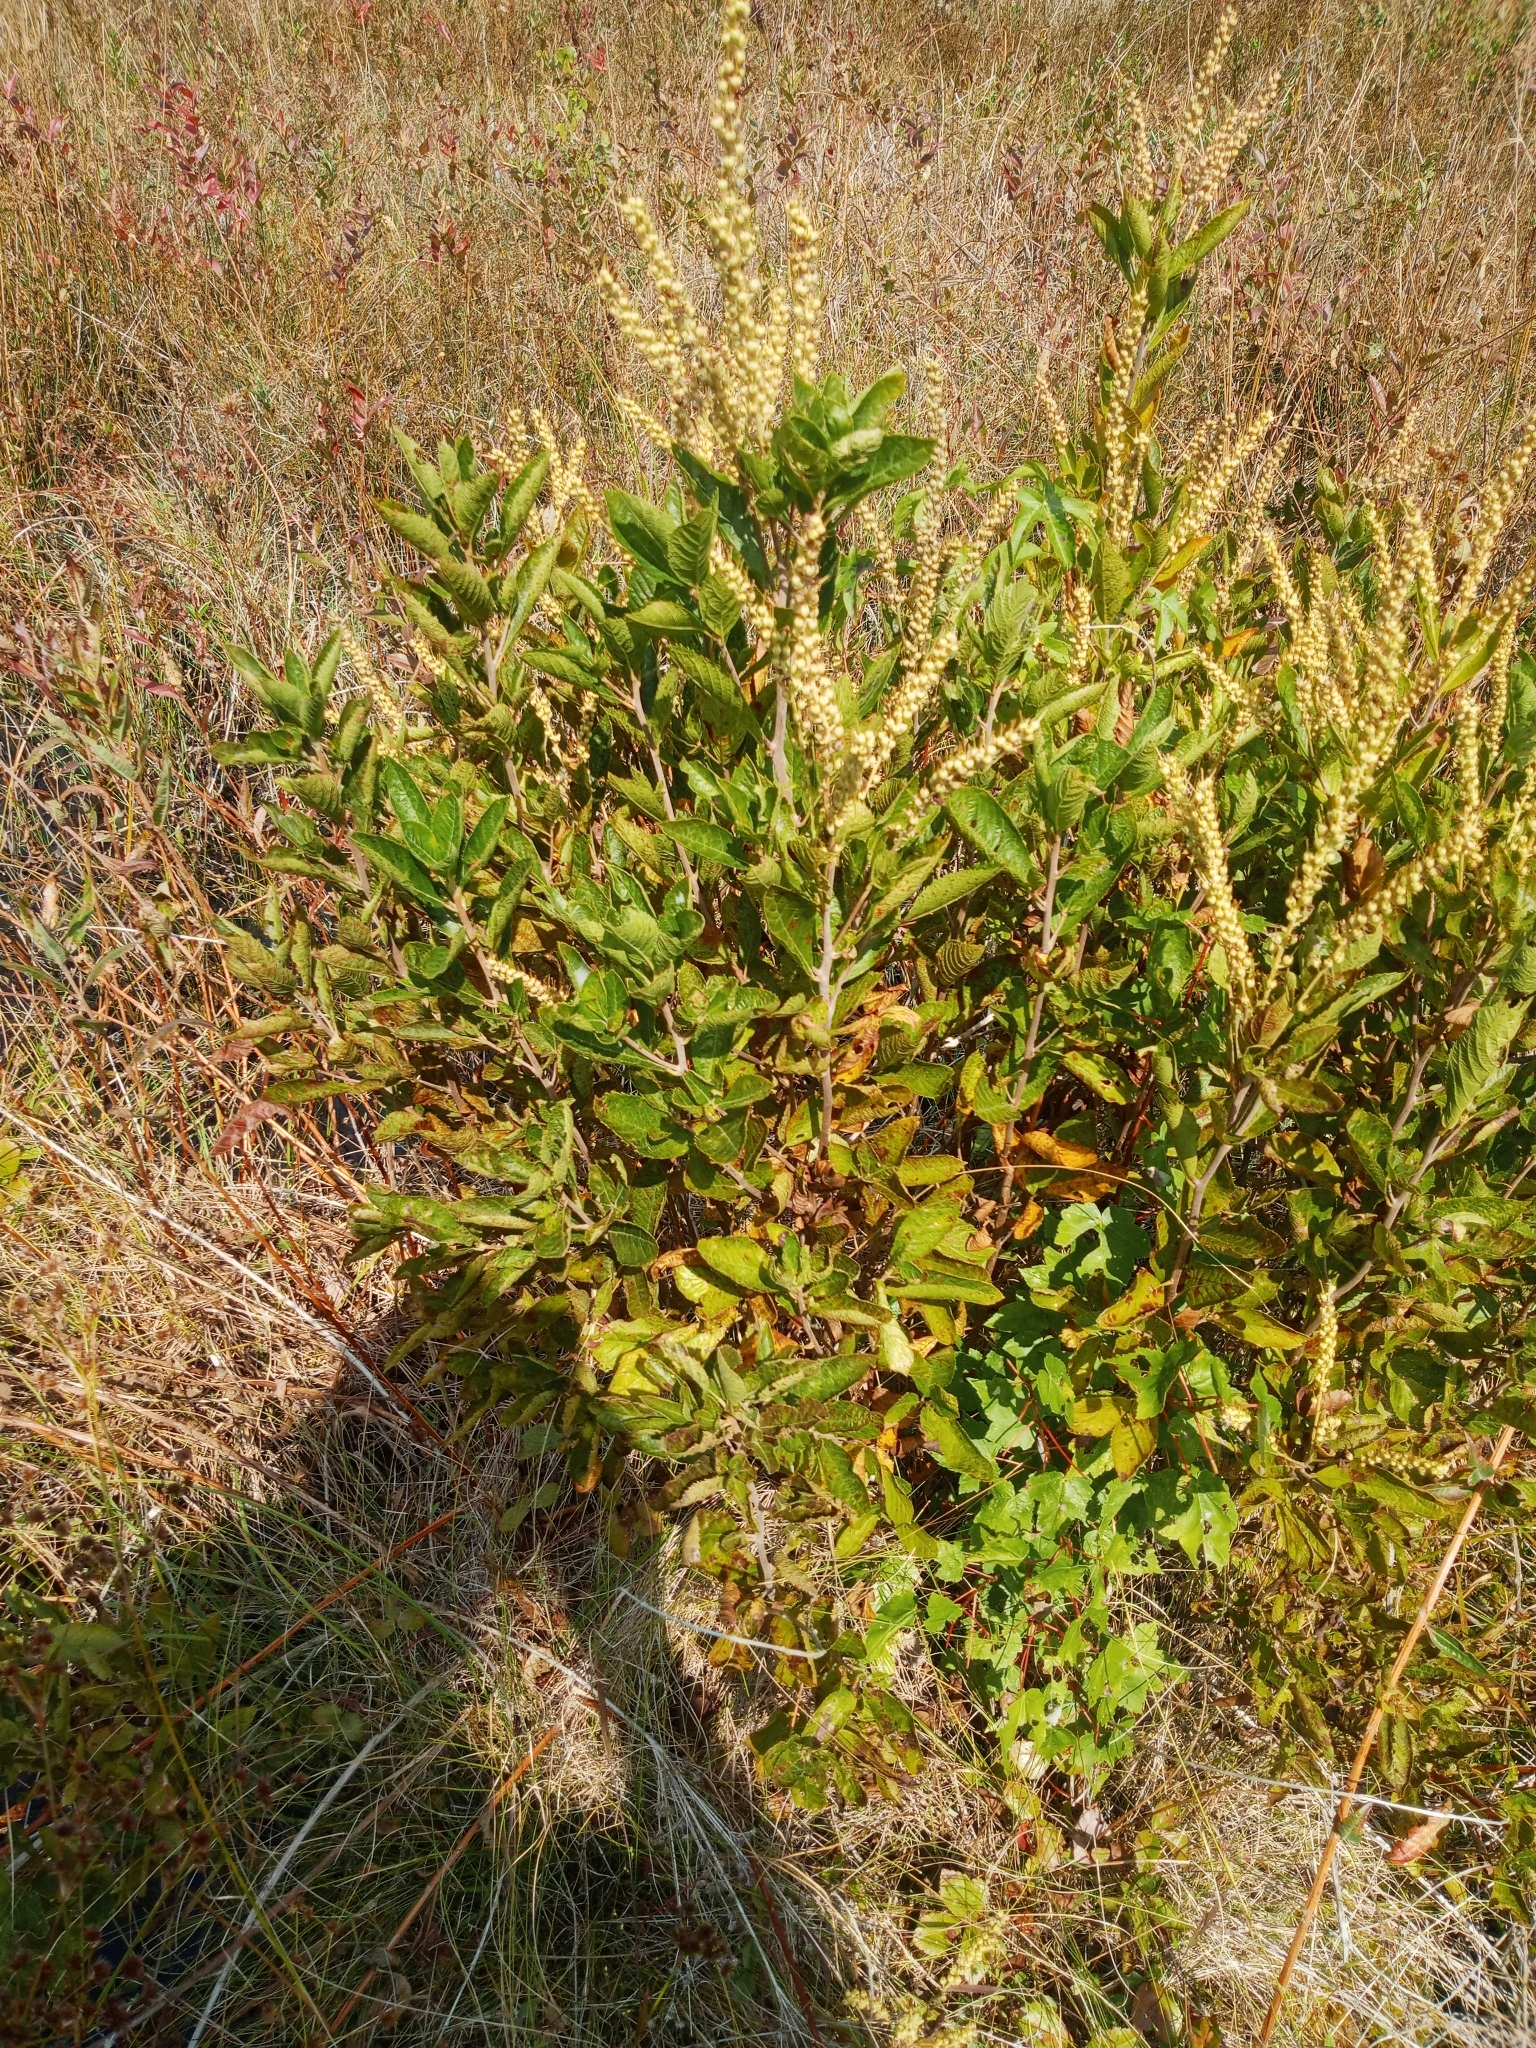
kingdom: Plantae
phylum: Tracheophyta
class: Magnoliopsida
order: Ericales
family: Clethraceae
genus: Clethra
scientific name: Clethra alnifolia
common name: Sweet pepperbush
